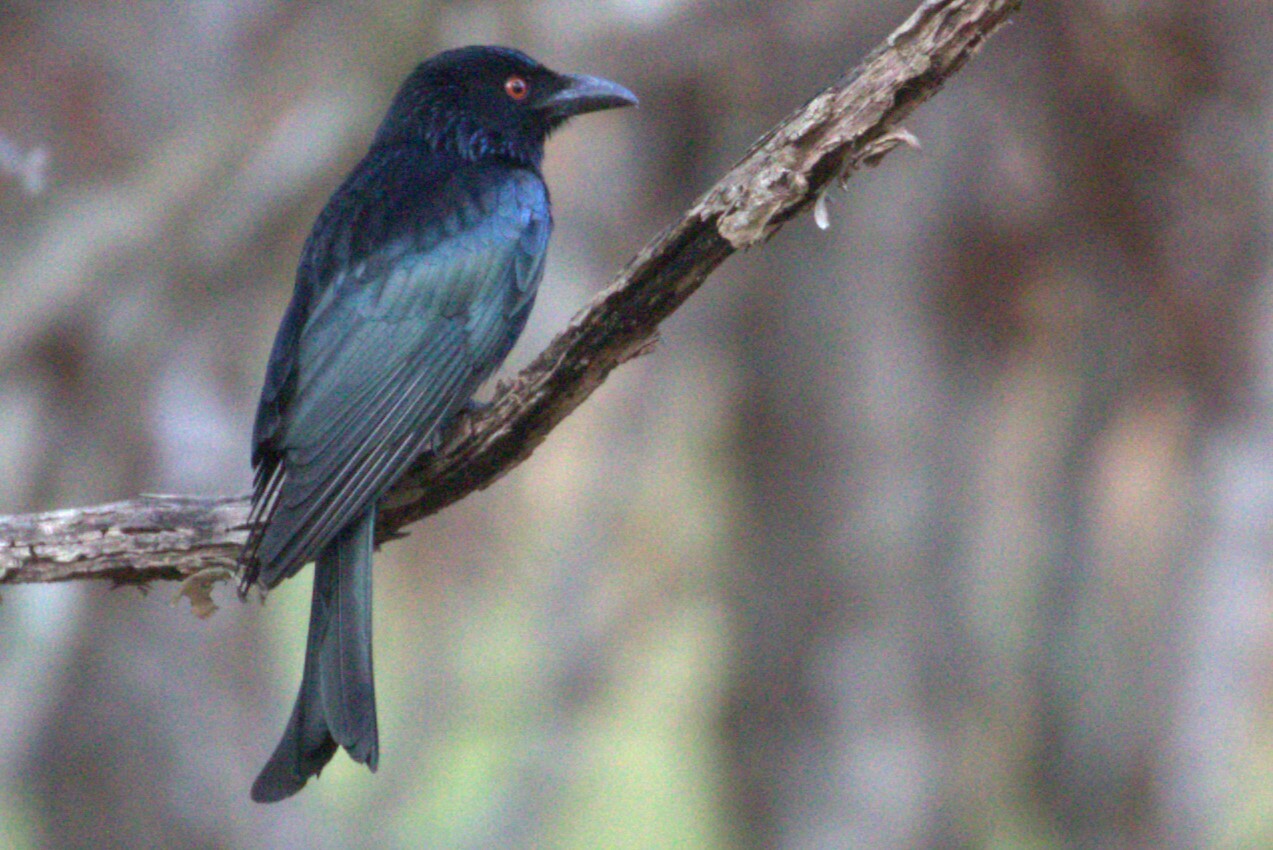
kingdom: Animalia
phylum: Chordata
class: Aves
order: Passeriformes
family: Dicruridae
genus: Dicrurus
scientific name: Dicrurus bracteatus
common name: Spangled drongo
